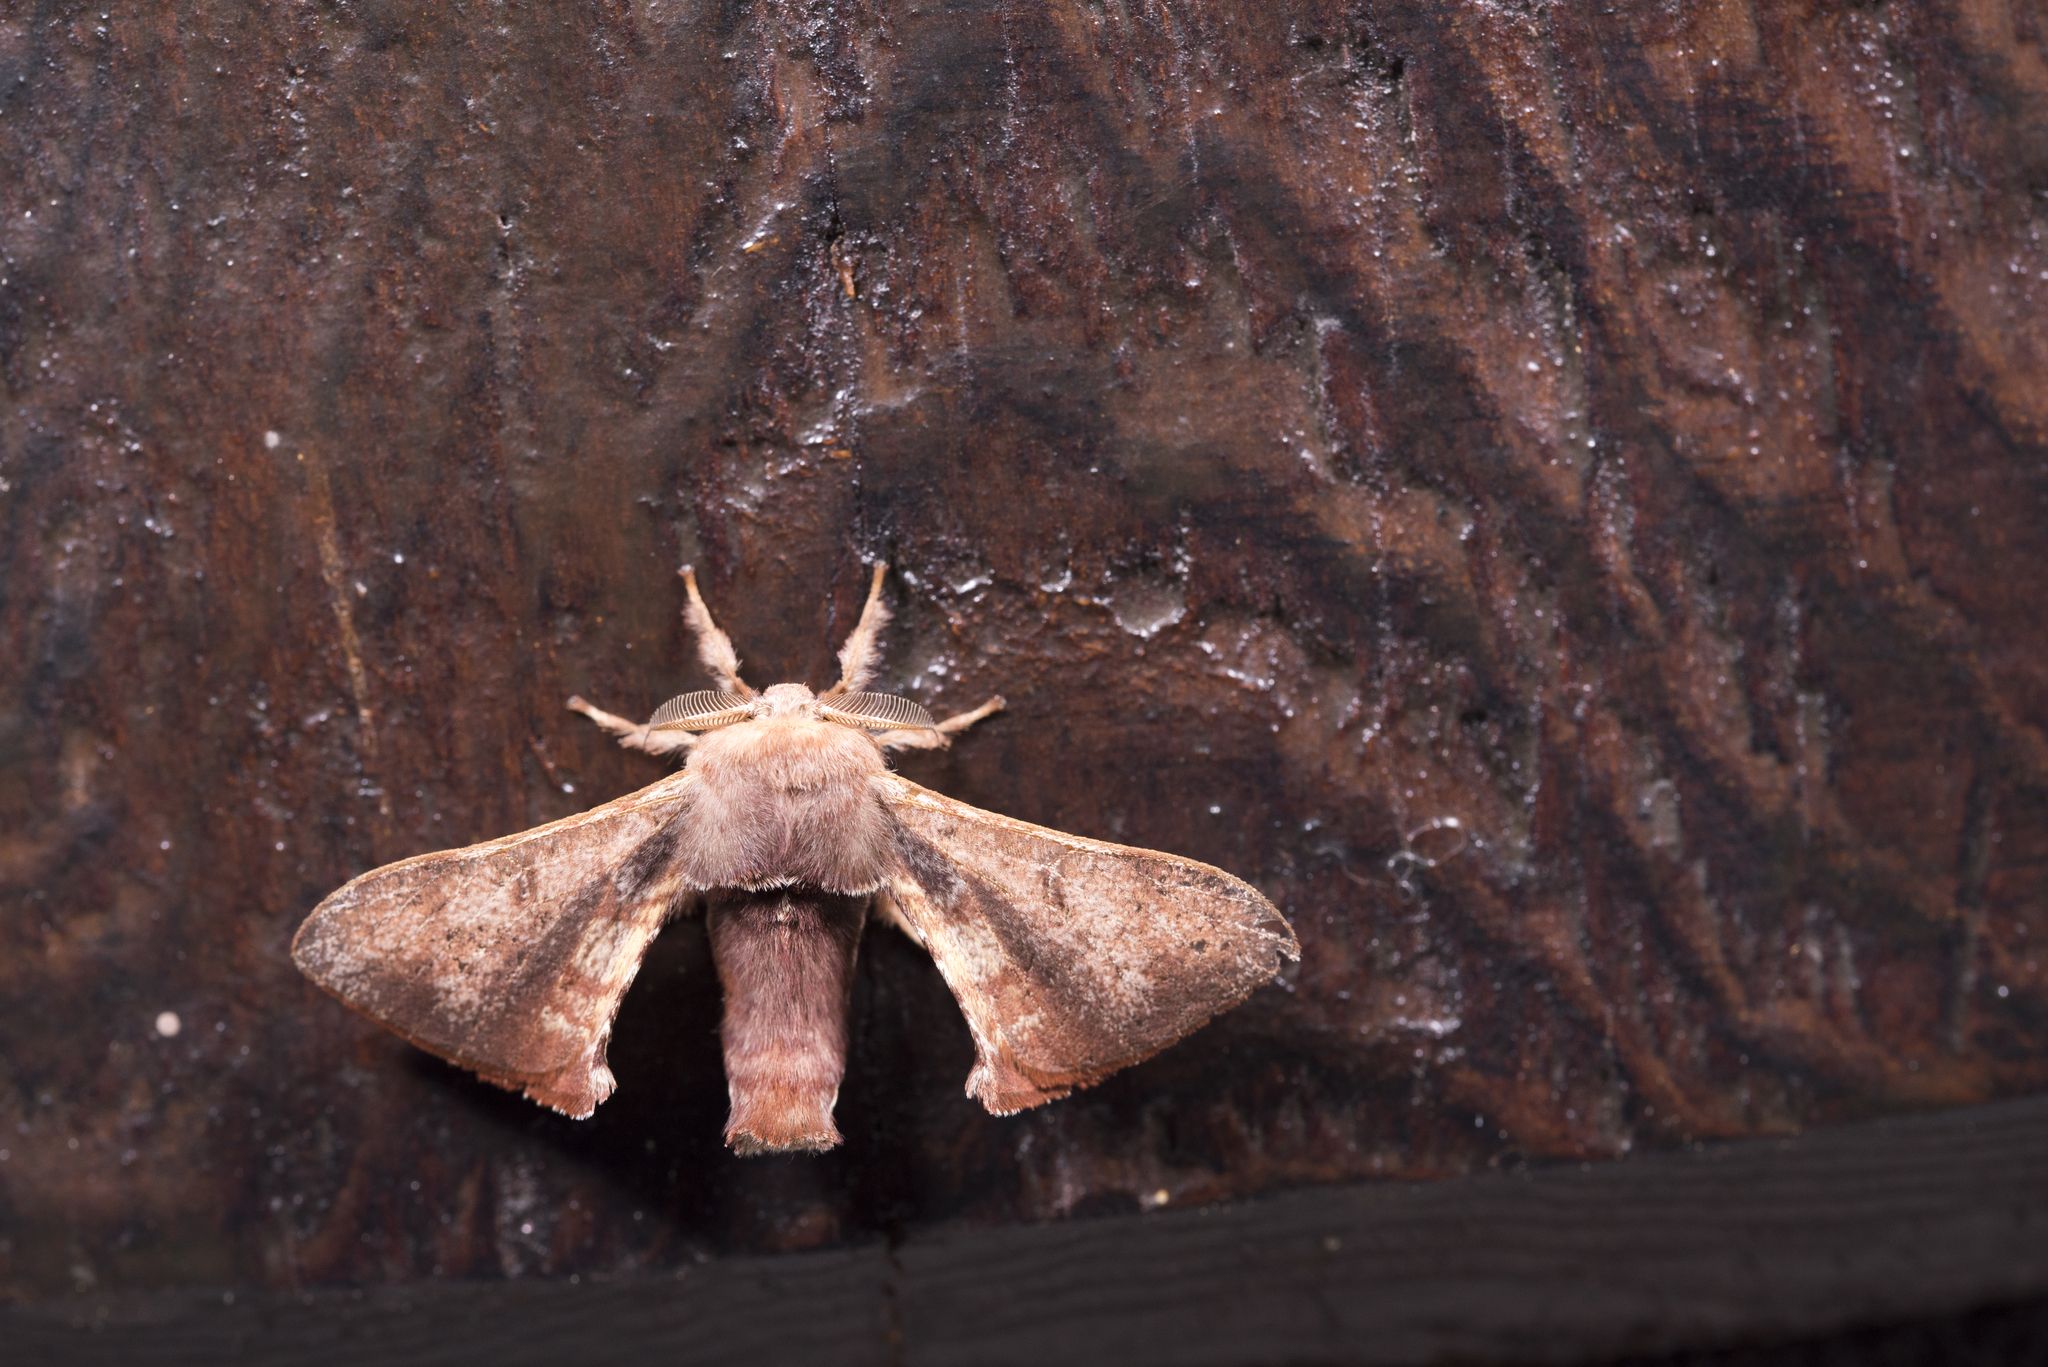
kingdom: Animalia
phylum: Arthropoda
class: Insecta
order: Lepidoptera
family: Bombycidae
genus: Triuncina
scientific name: Triuncina brunnea
